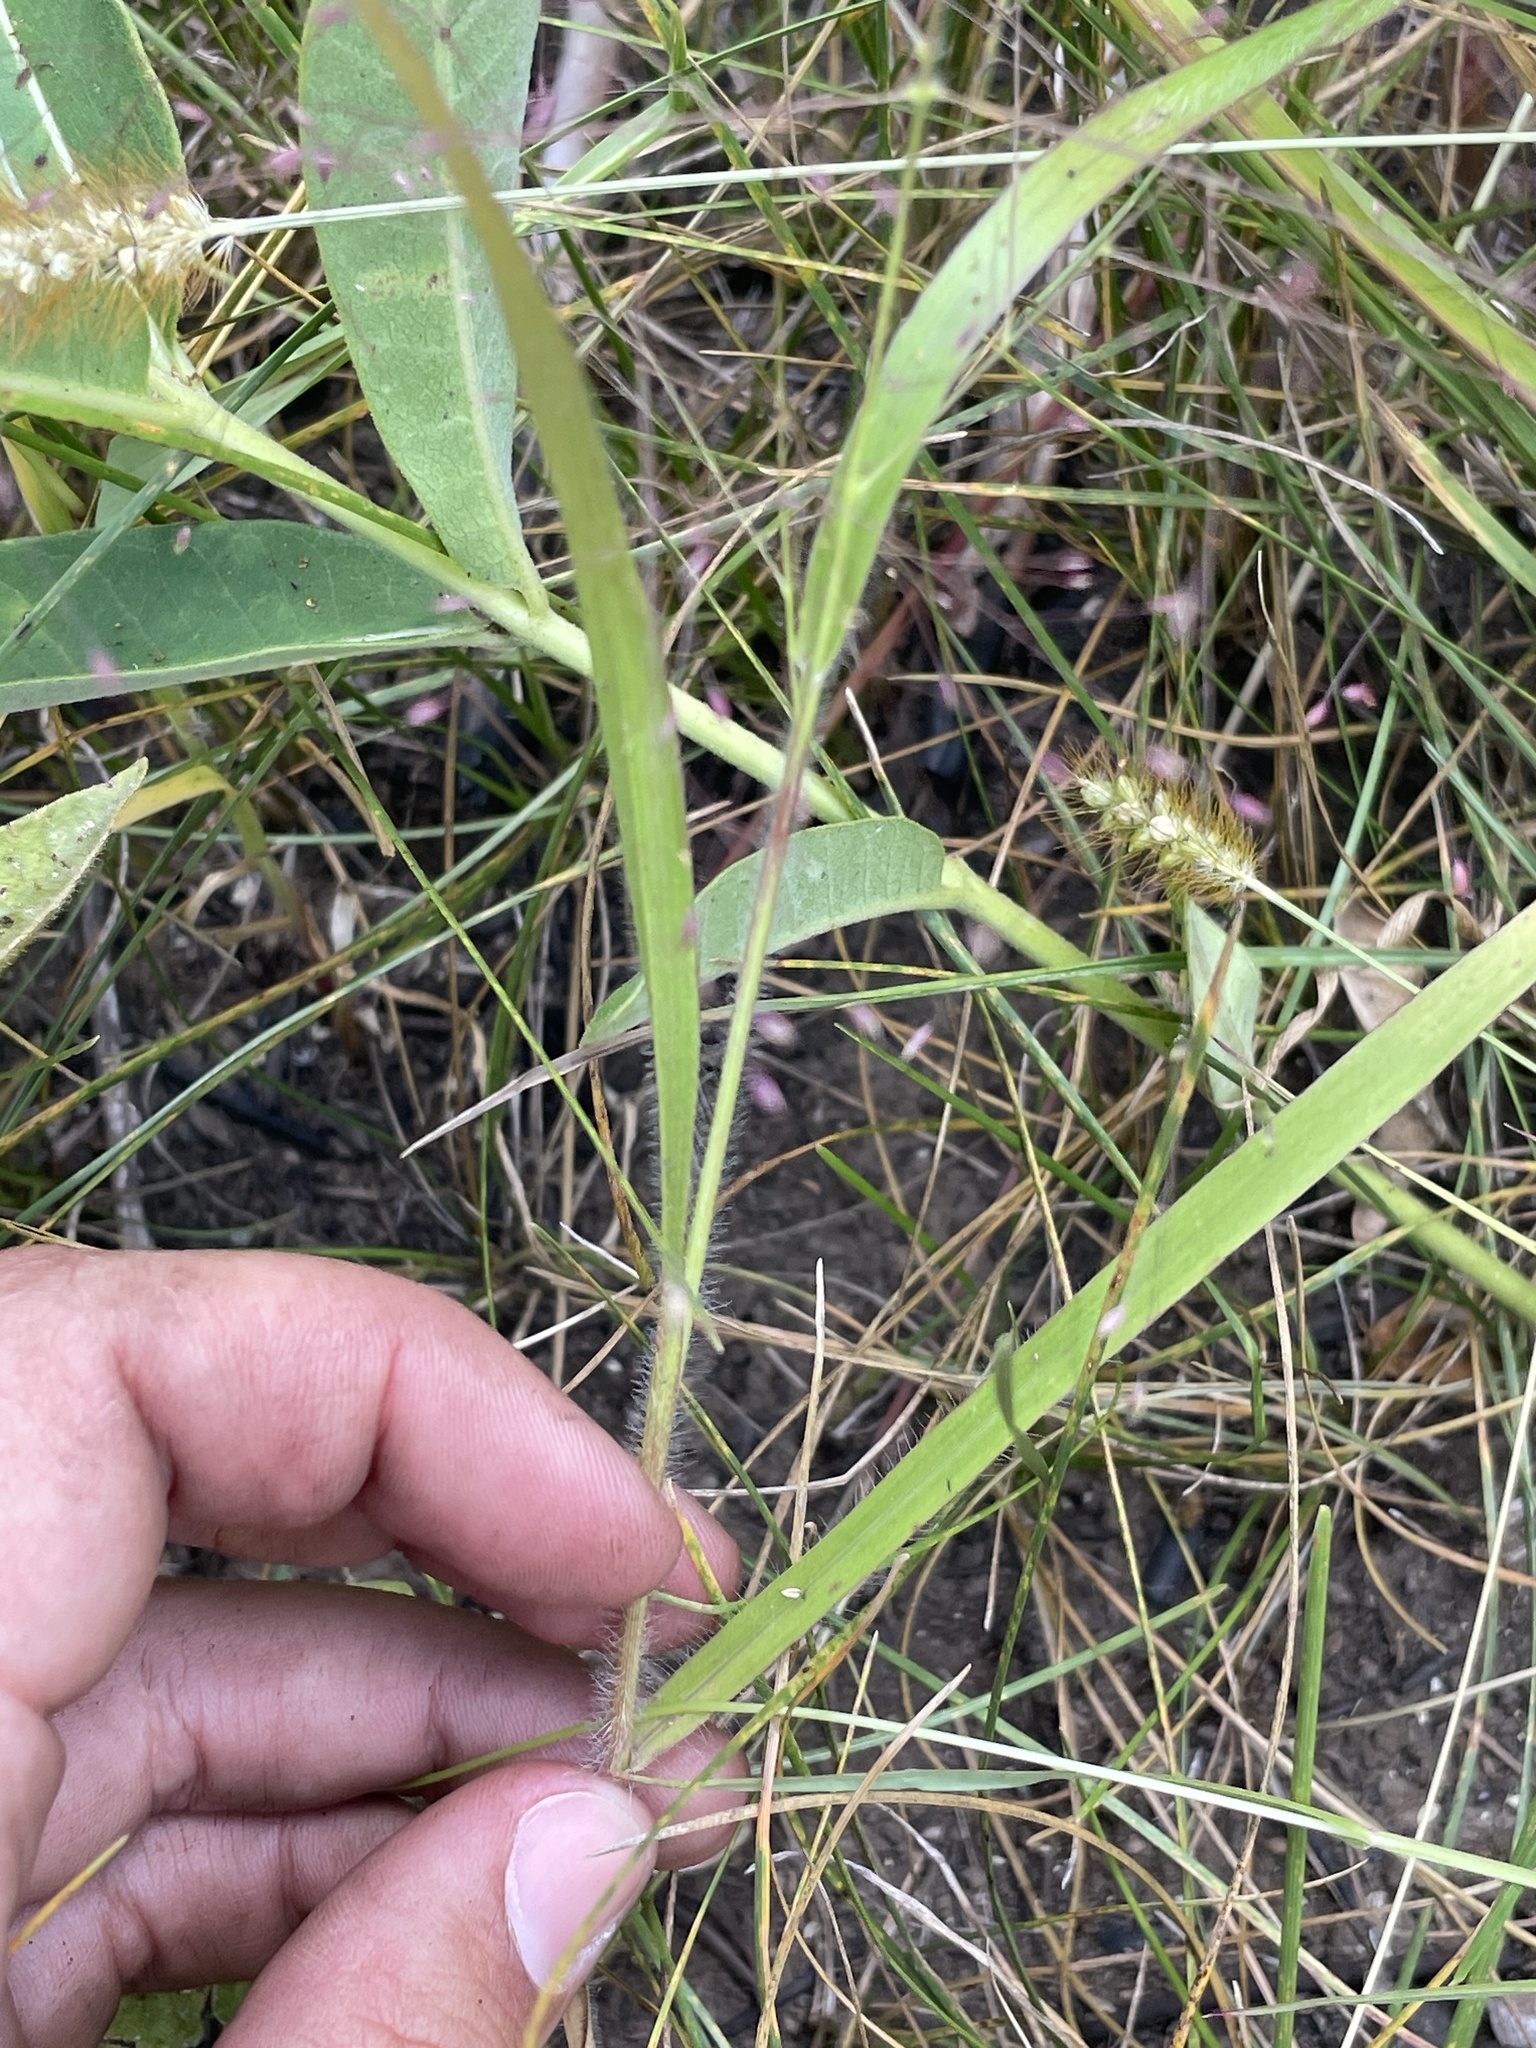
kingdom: Plantae
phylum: Tracheophyta
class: Liliopsida
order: Poales
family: Poaceae
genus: Panicum
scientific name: Panicum capillare
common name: Witch-grass
